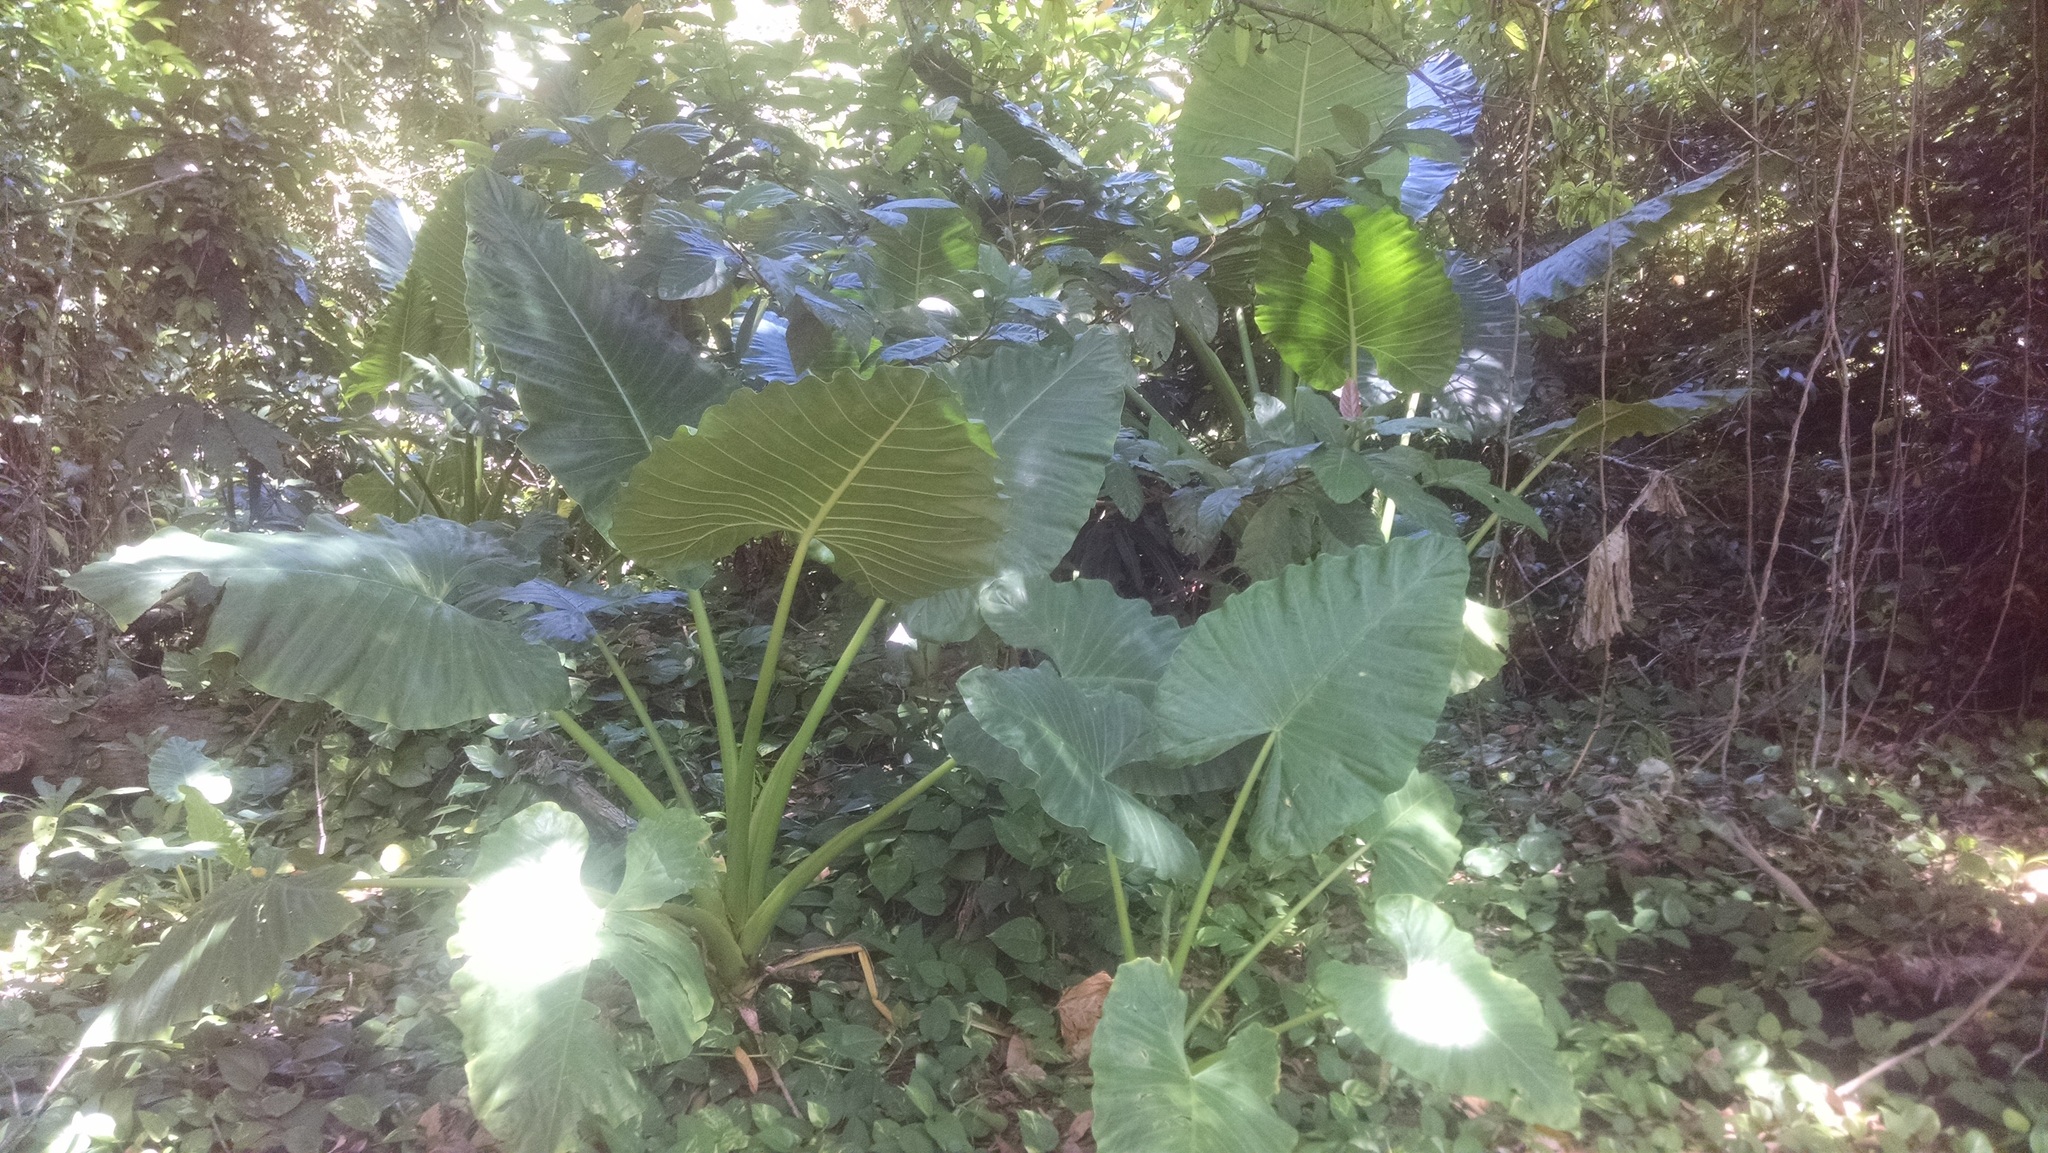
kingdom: Plantae
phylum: Tracheophyta
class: Liliopsida
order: Alismatales
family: Araceae
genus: Alocasia
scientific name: Alocasia macrorrhizos
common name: Giant taro
